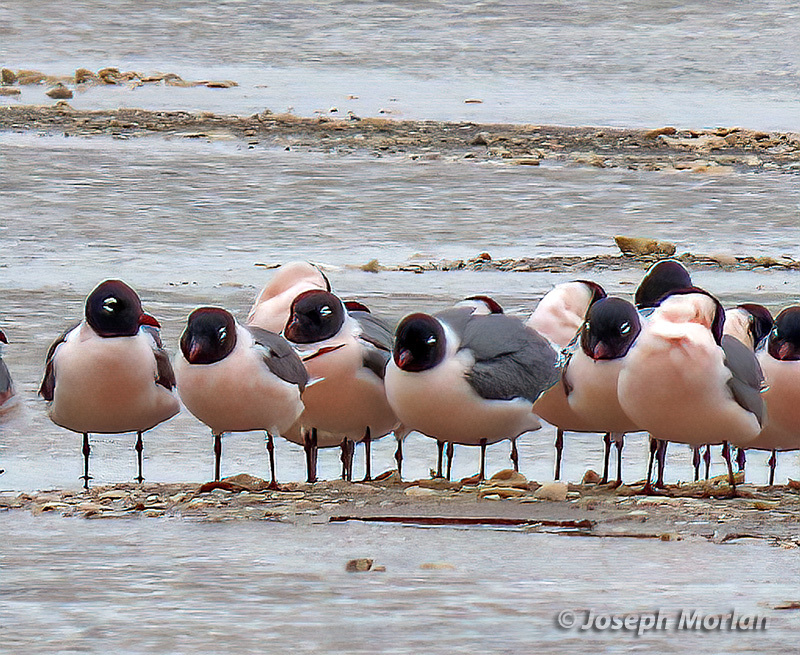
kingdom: Animalia
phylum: Chordata
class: Aves
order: Charadriiformes
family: Laridae
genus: Leucophaeus
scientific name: Leucophaeus pipixcan
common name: Franklin's gull
